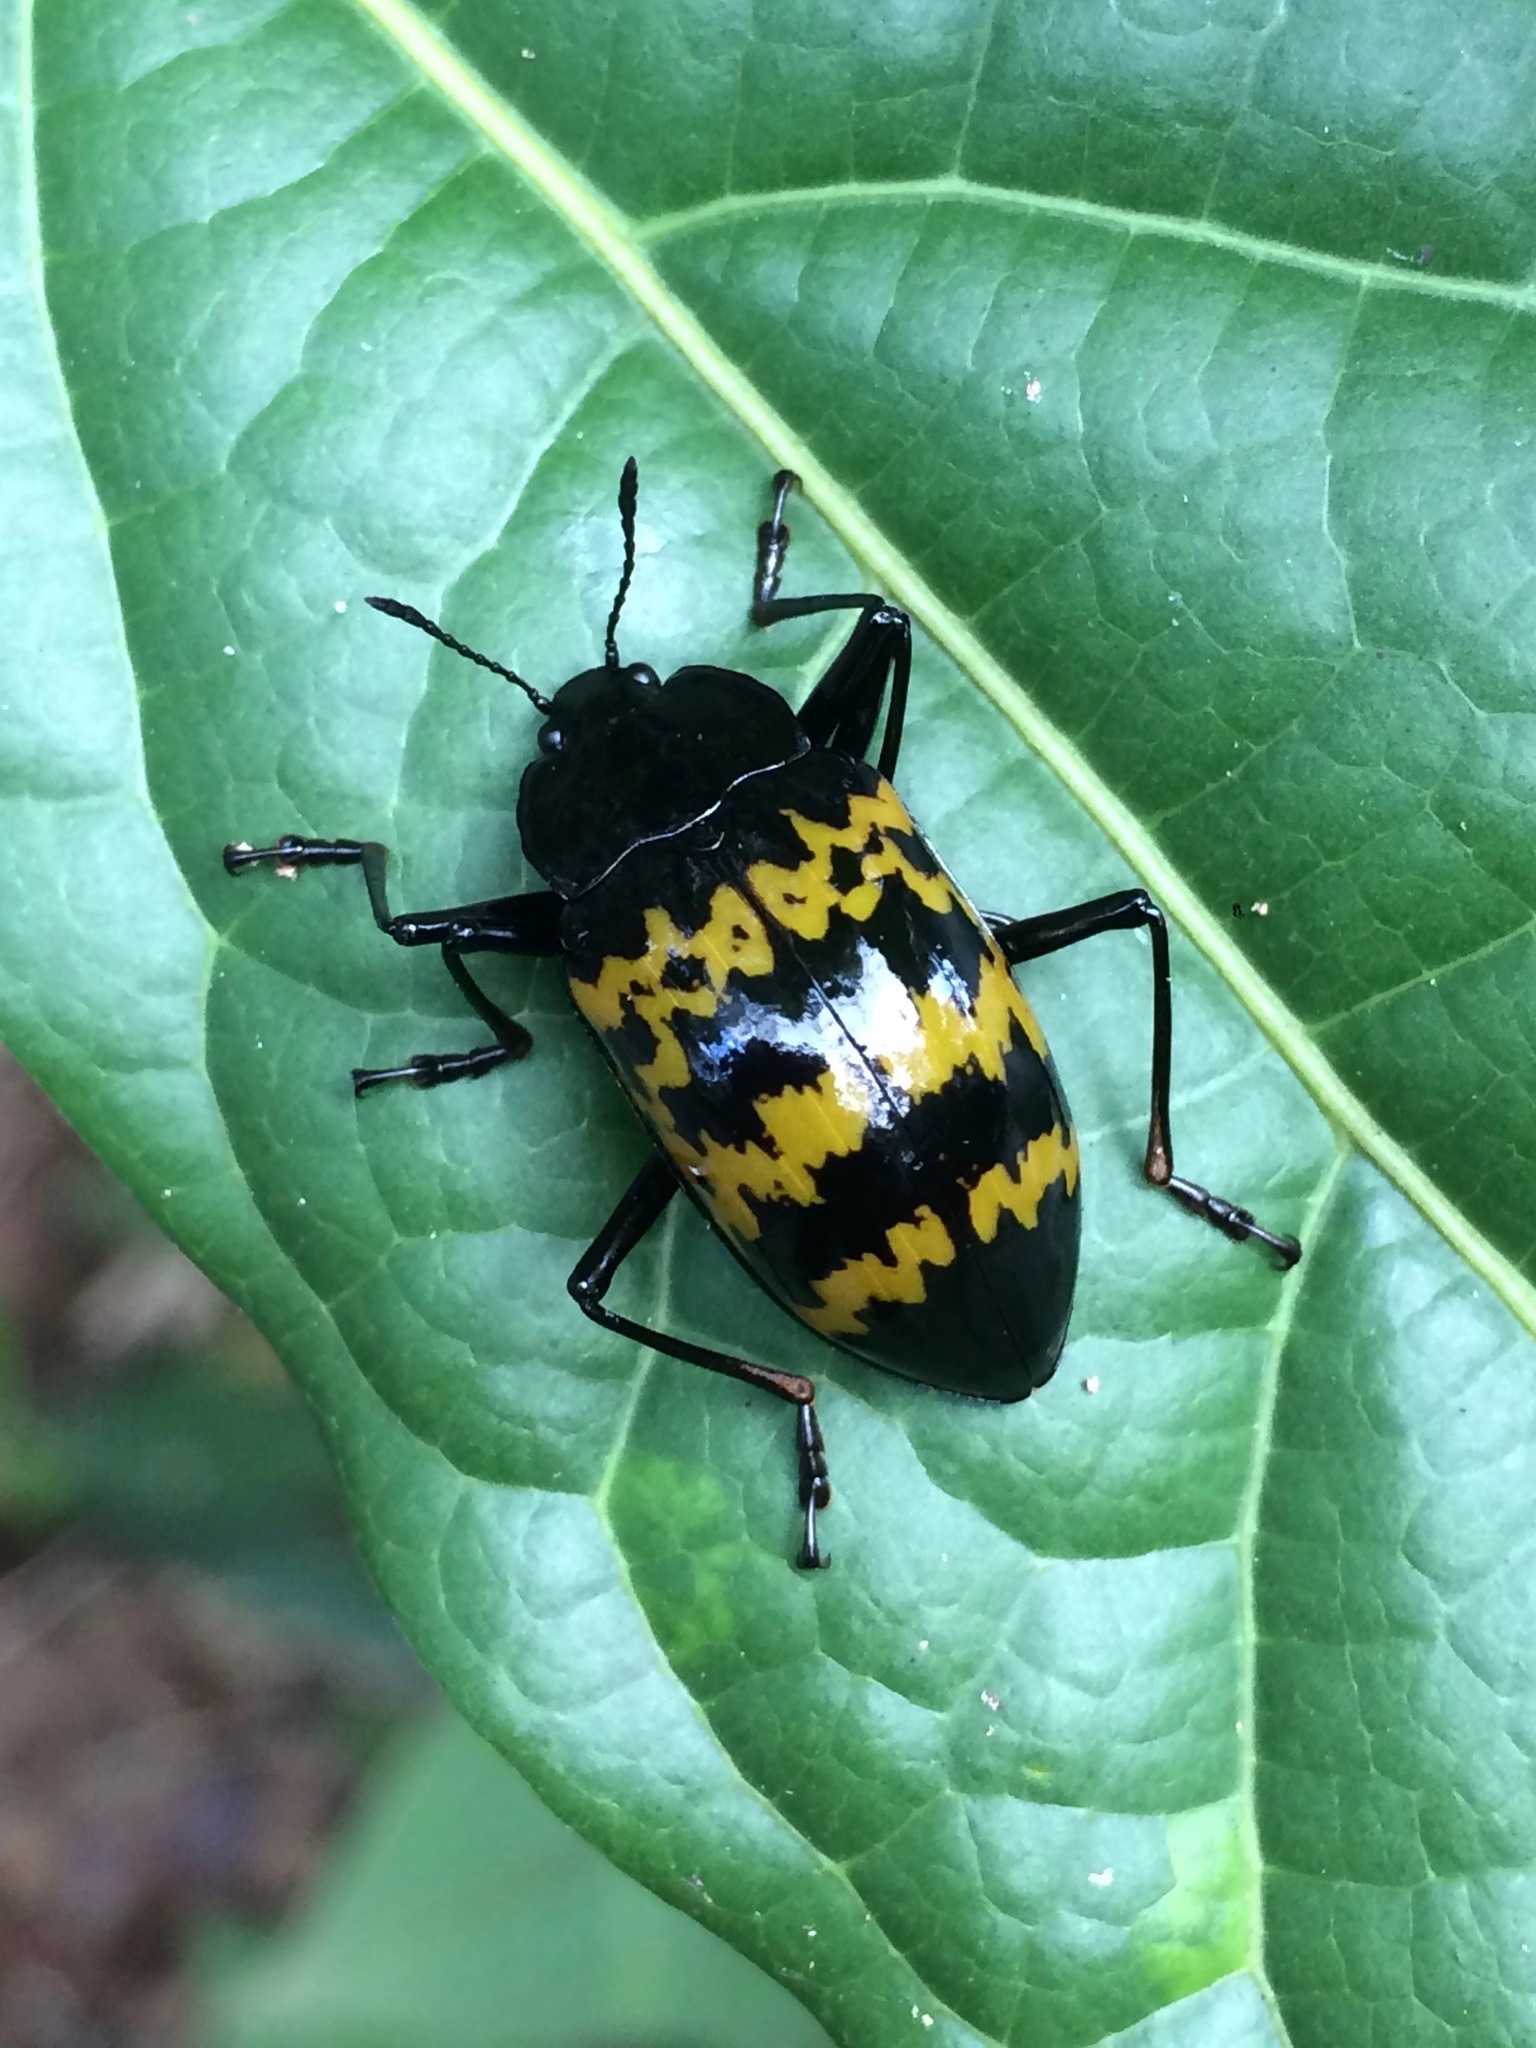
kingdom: Animalia
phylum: Arthropoda
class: Insecta
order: Coleoptera
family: Erotylidae
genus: Erotylina
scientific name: Erotylina
